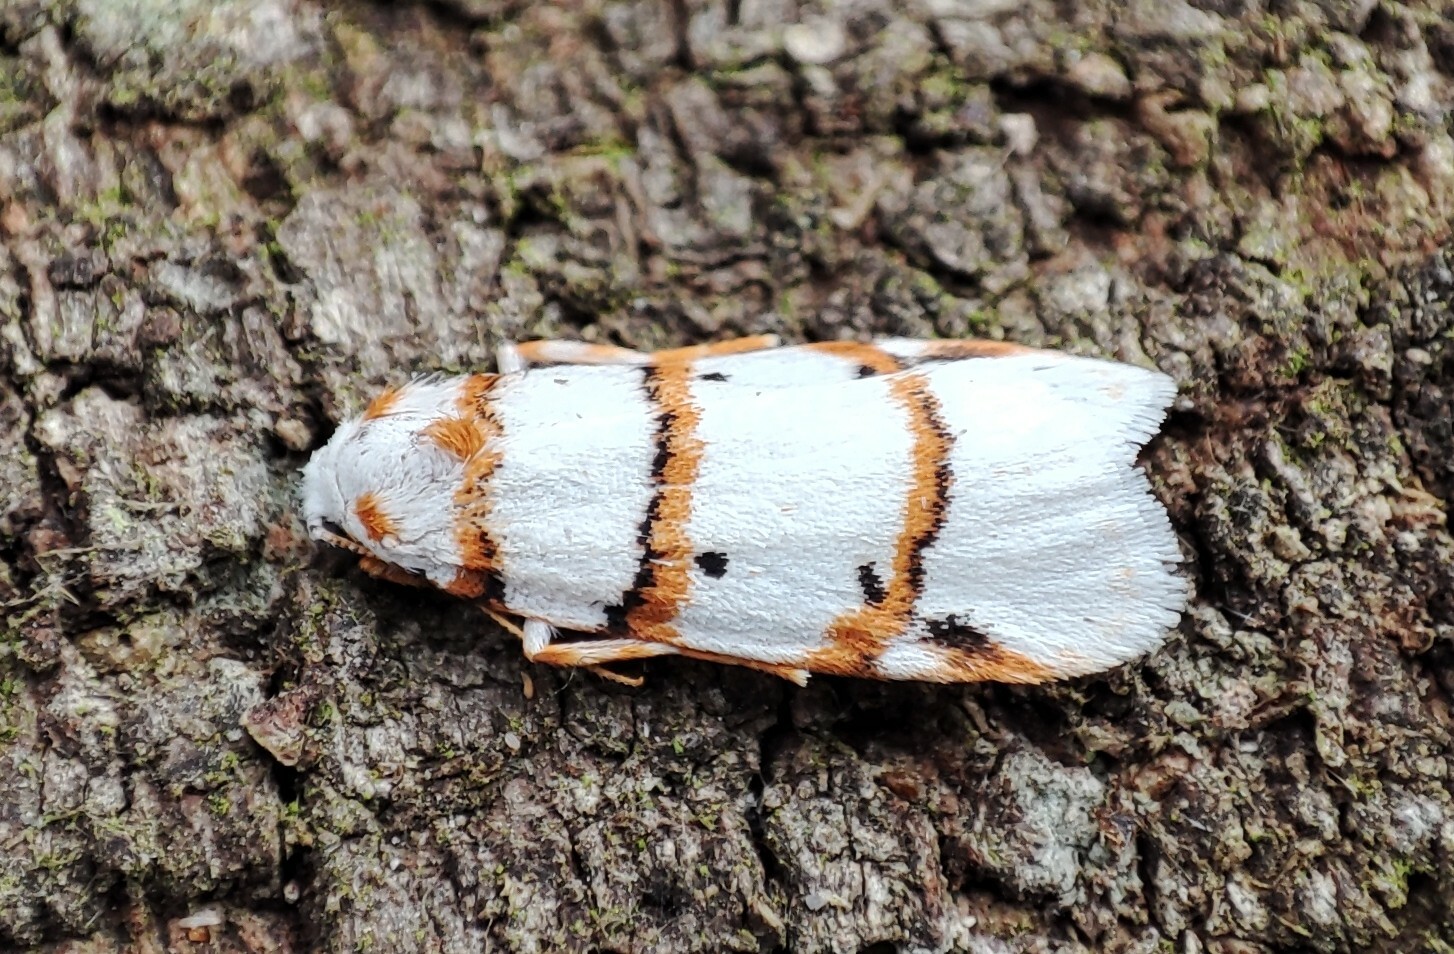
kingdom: Animalia
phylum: Arthropoda
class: Insecta
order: Lepidoptera
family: Erebidae
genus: Cyana
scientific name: Cyana capensis
